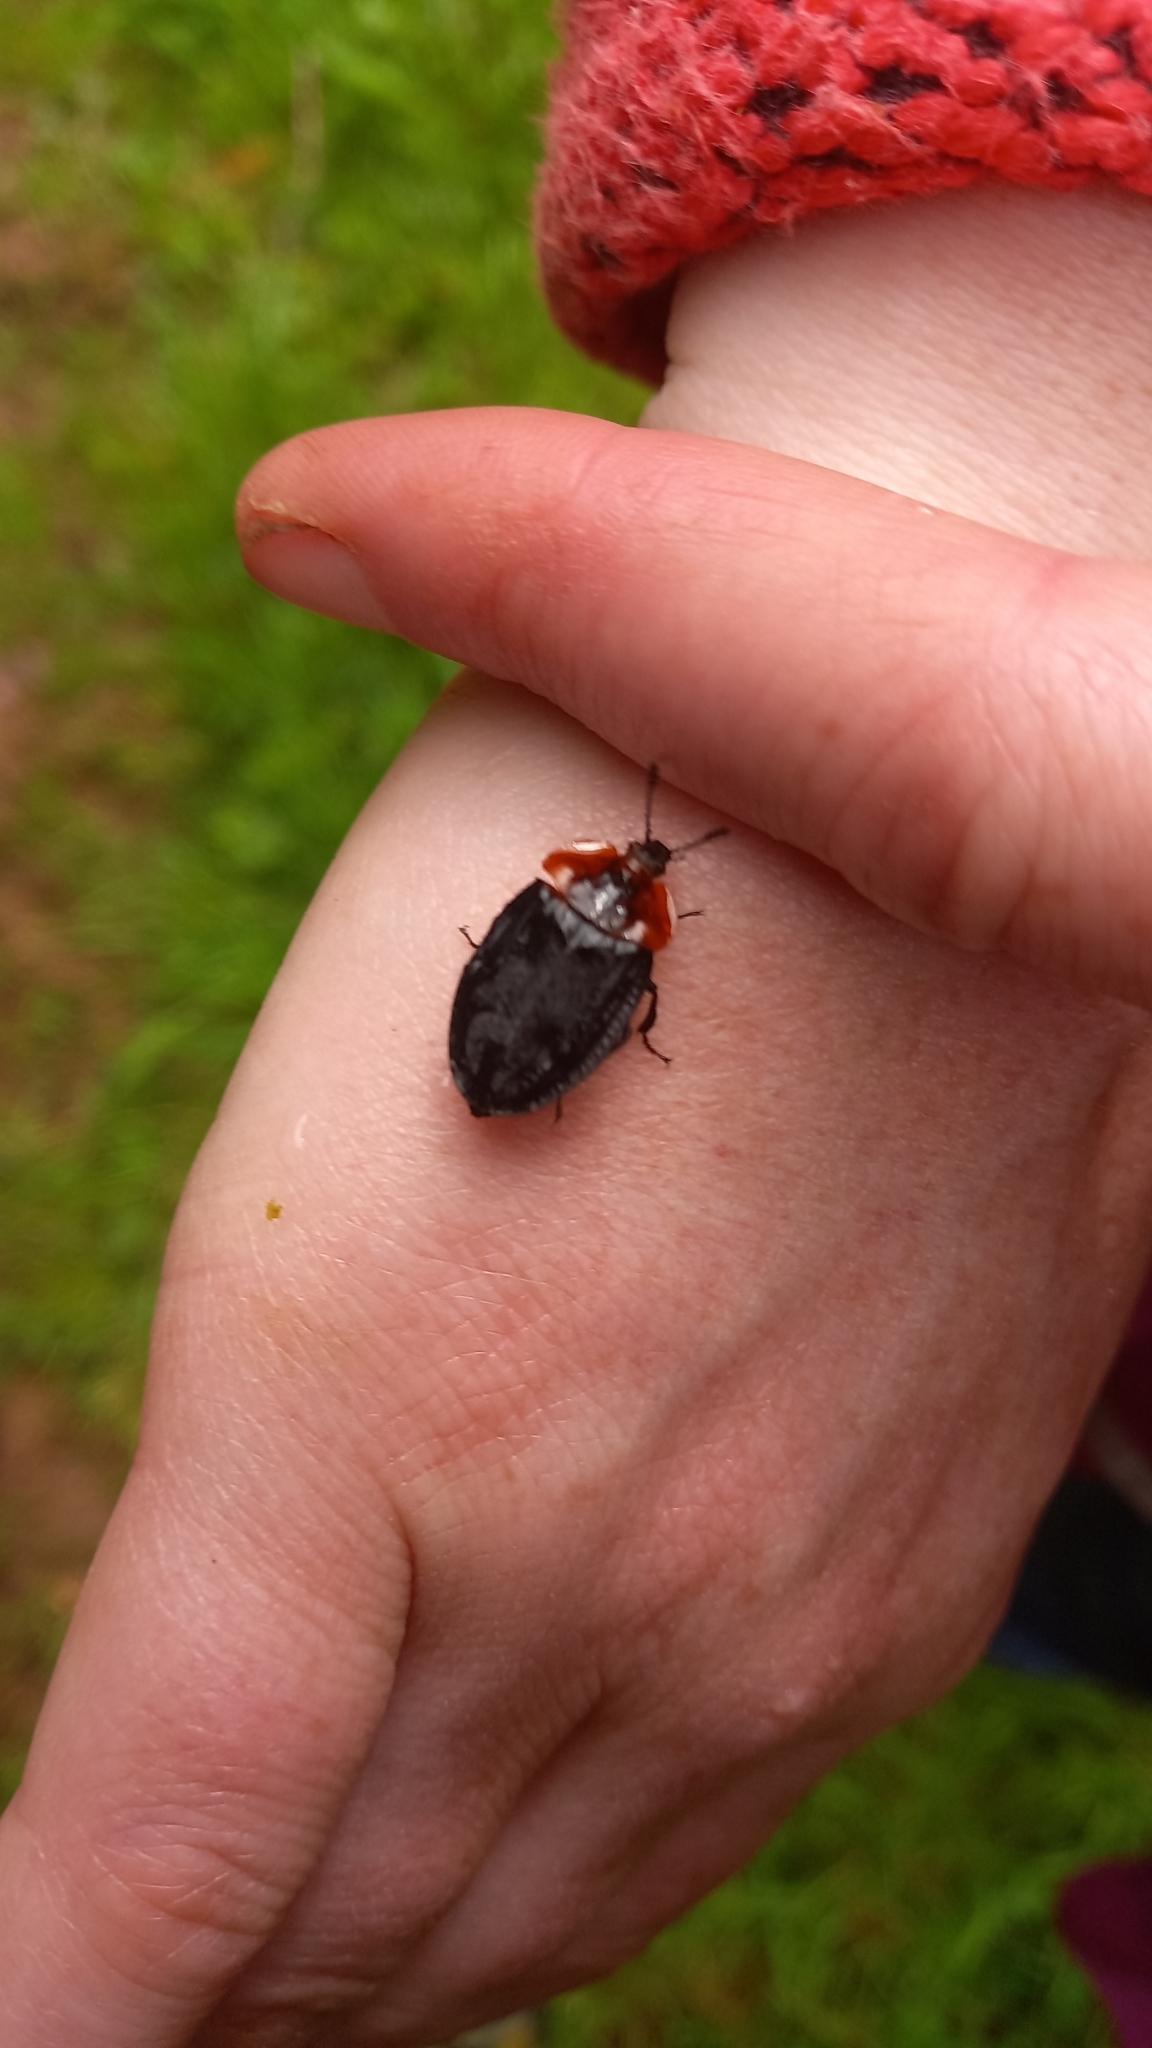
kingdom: Animalia
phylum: Arthropoda
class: Insecta
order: Coleoptera
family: Staphylinidae
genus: Oiceoptoma
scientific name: Oiceoptoma thoracicum
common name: Red-breasted carrion beetle
